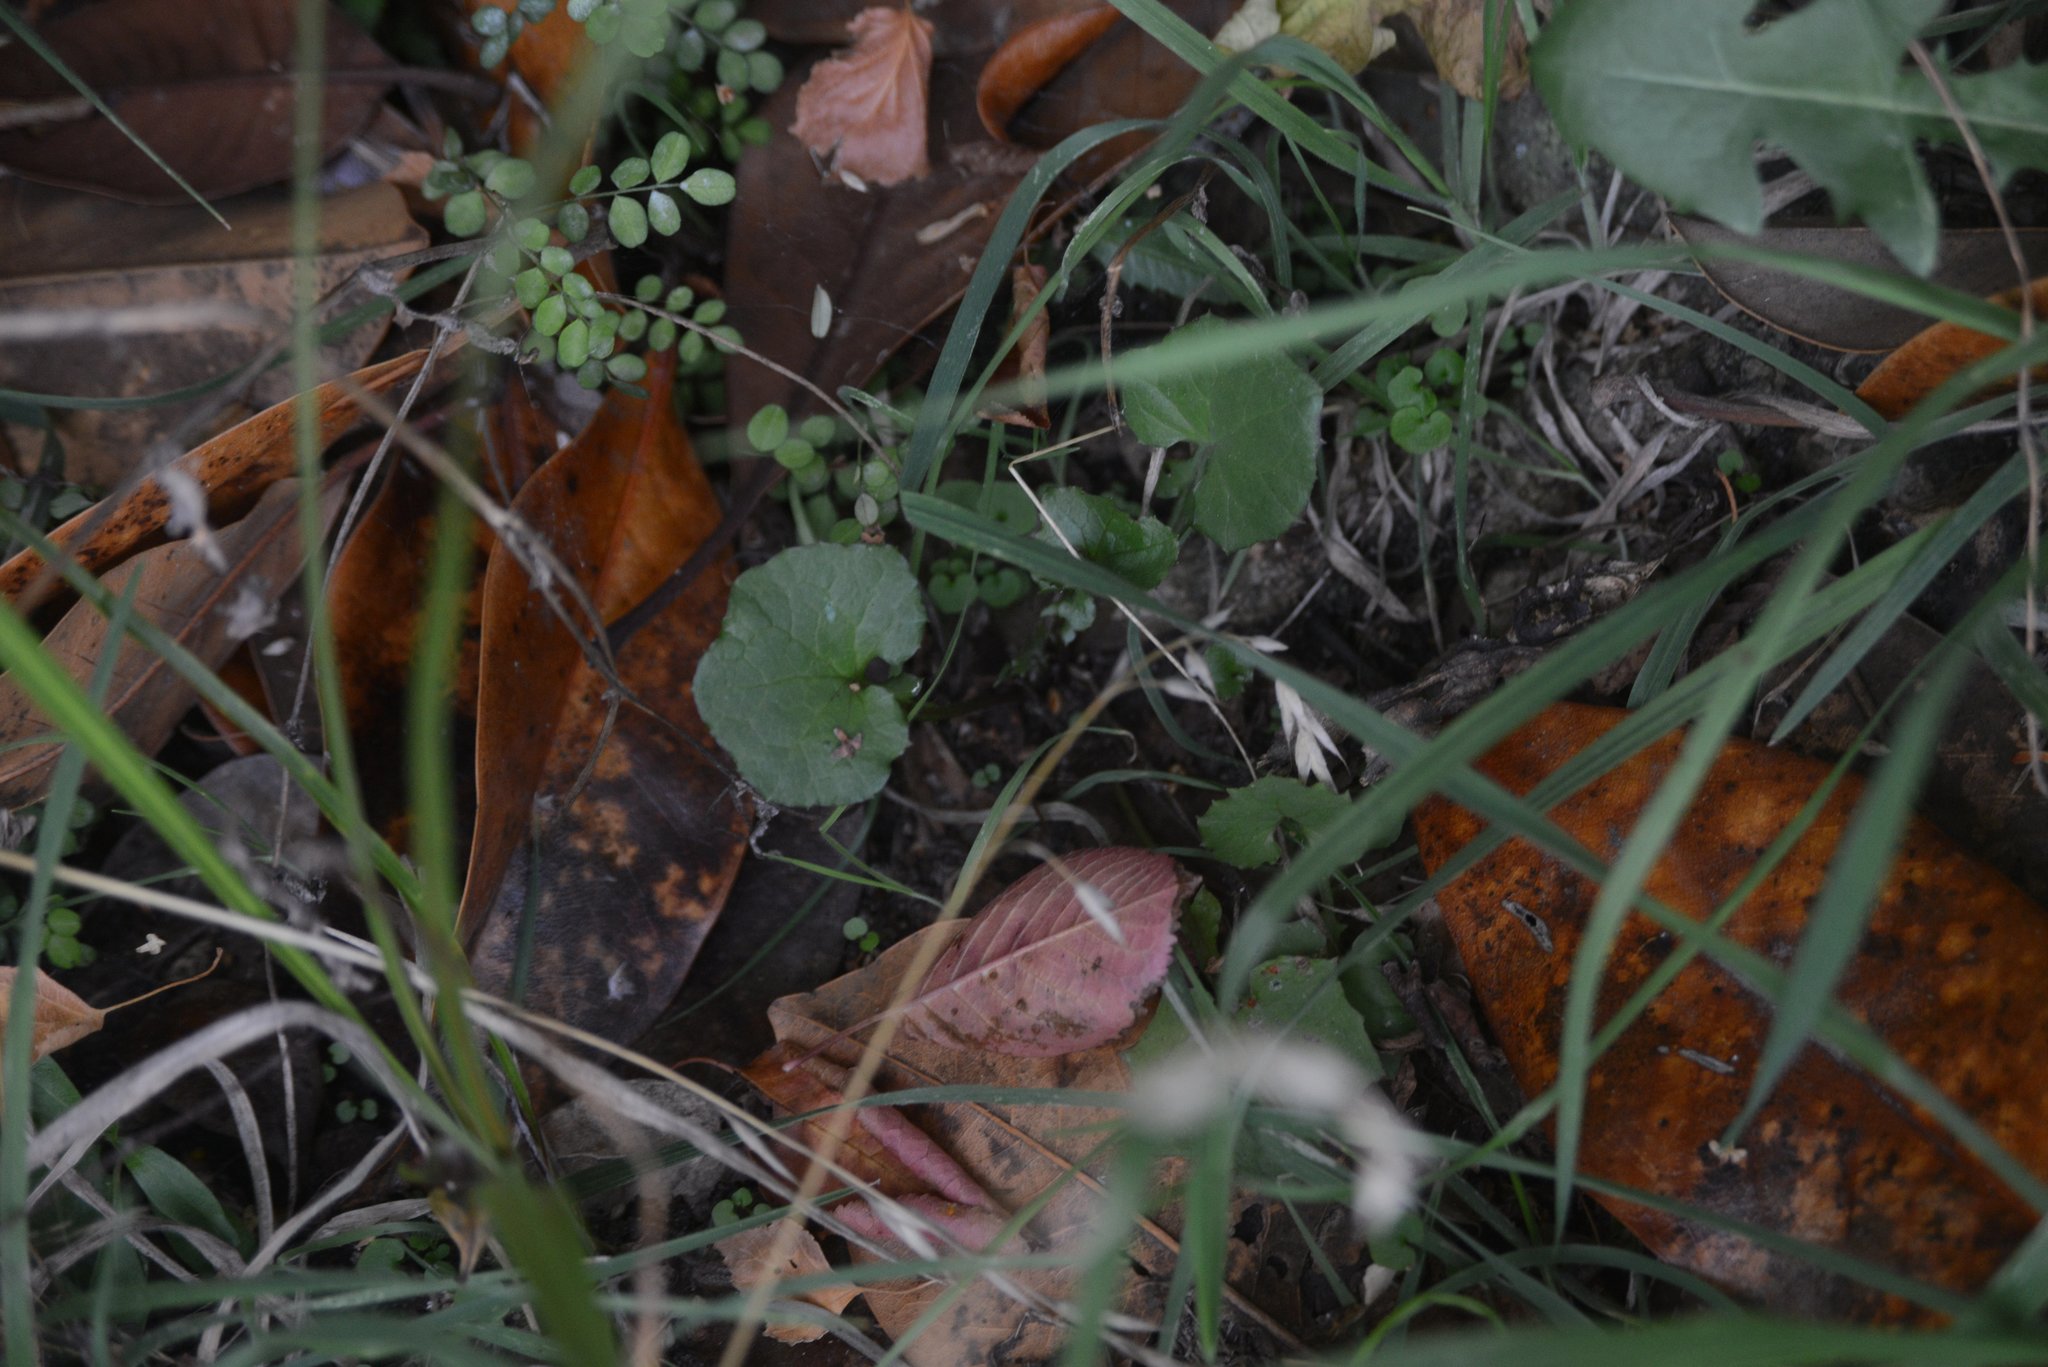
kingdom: Plantae
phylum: Tracheophyta
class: Magnoliopsida
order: Asterales
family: Asteraceae
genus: Mycelis
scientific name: Mycelis muralis
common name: Wall lettuce
